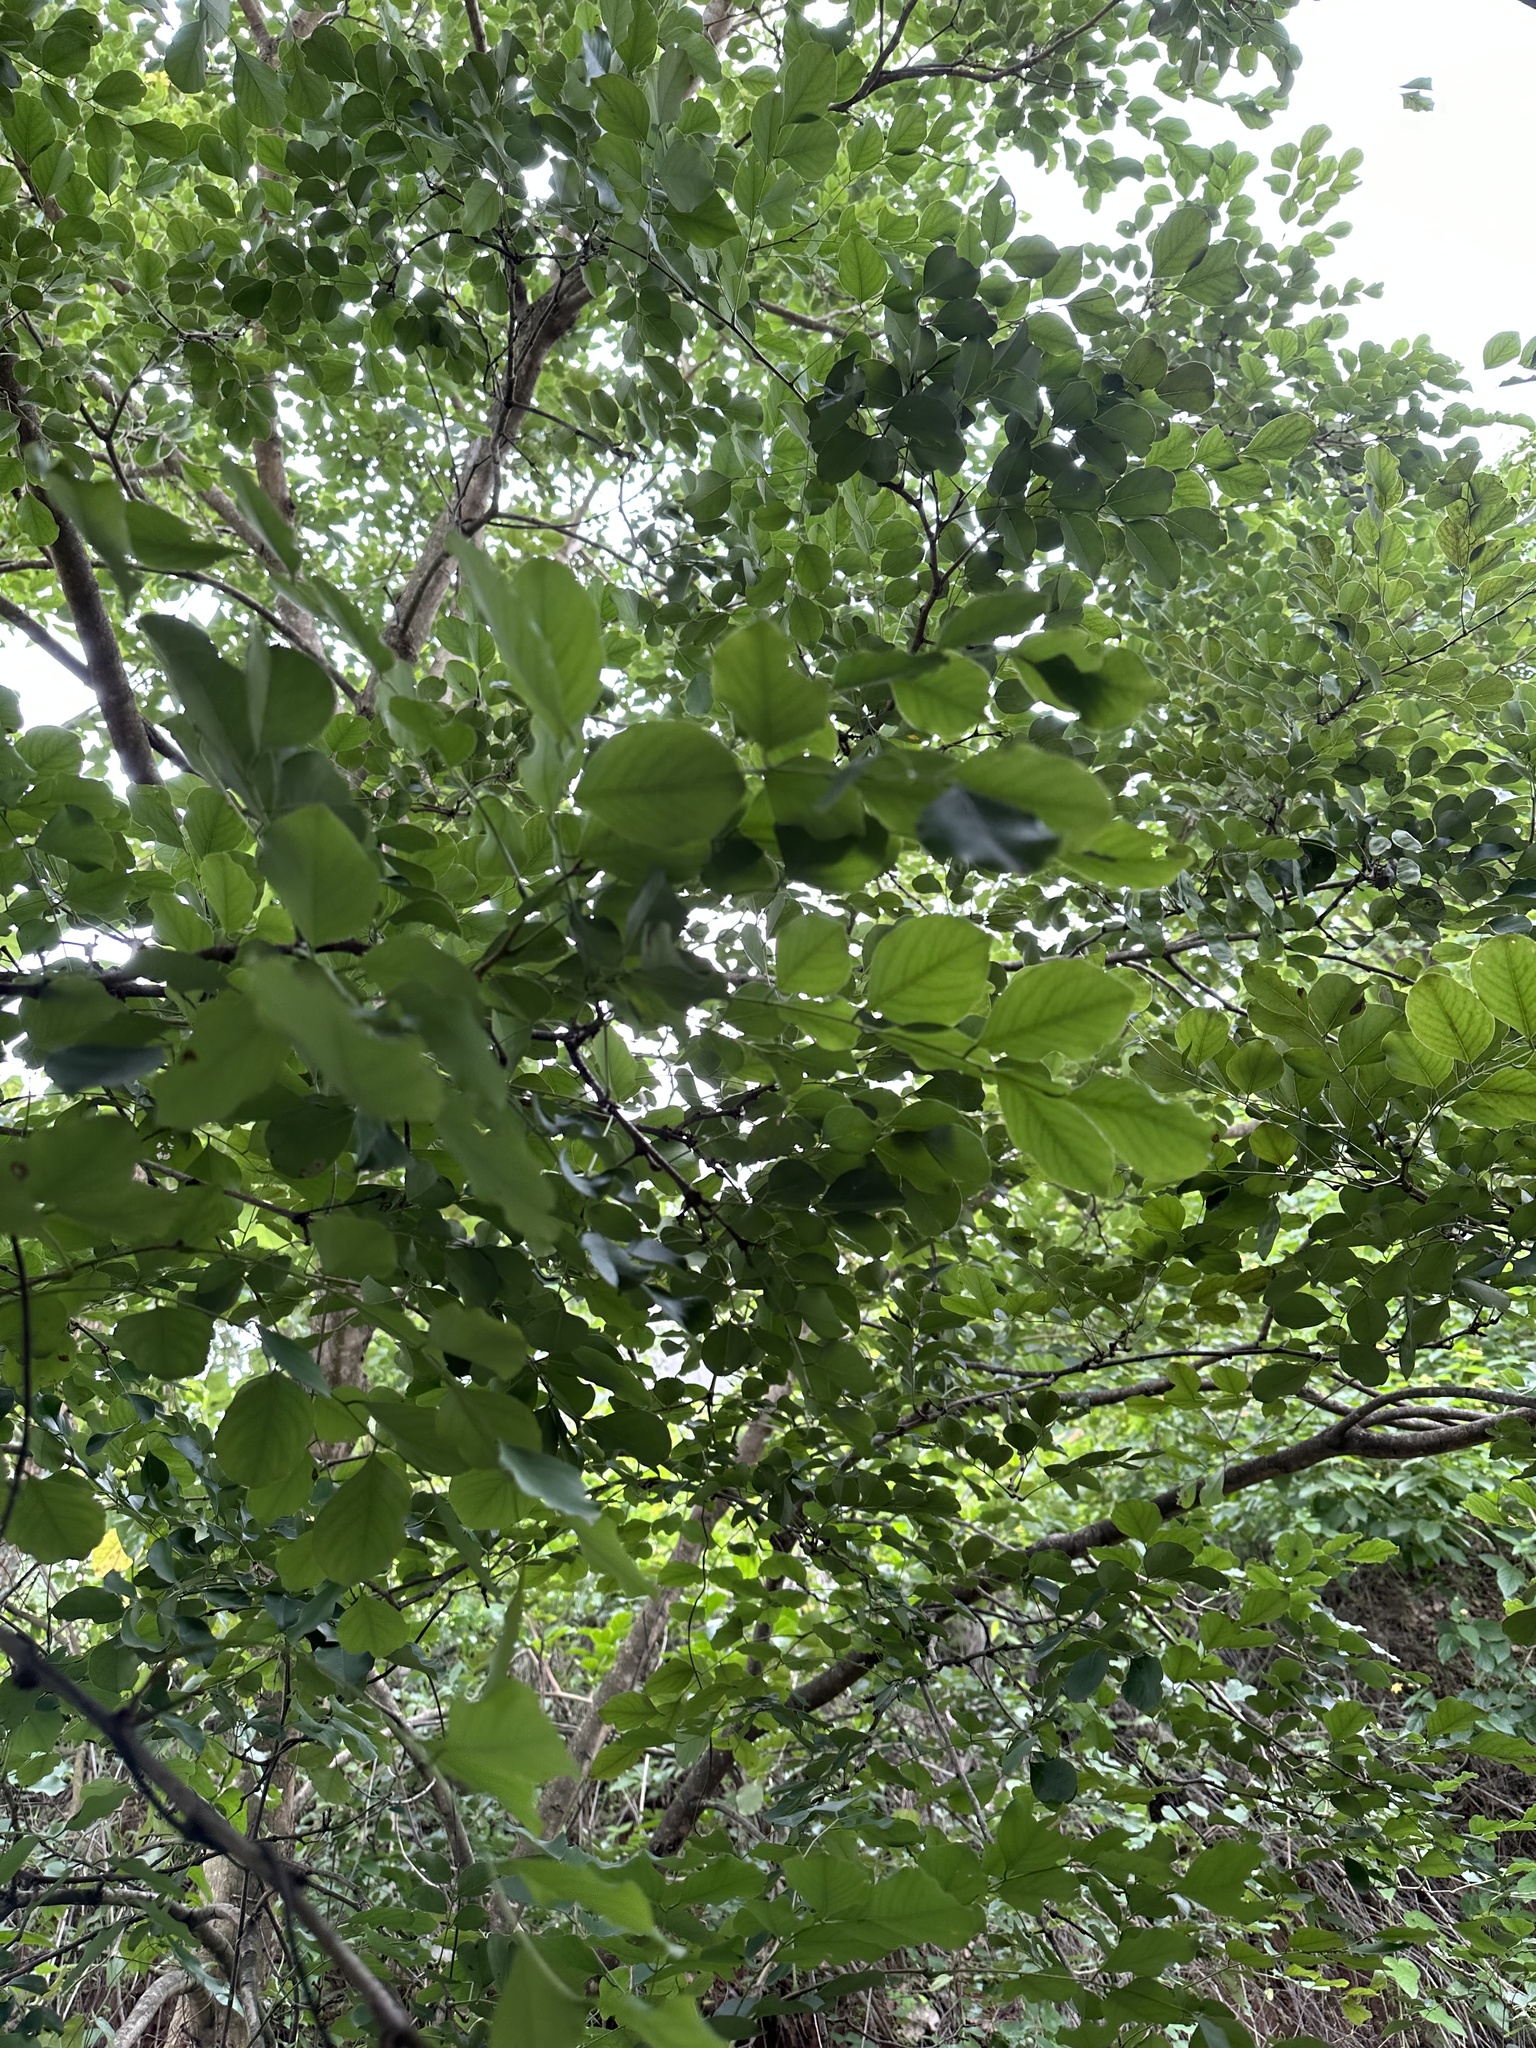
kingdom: Plantae
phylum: Tracheophyta
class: Magnoliopsida
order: Fabales
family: Fabaceae
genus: Dalbergia
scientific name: Dalbergia latifolia
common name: Bombay blackwood
